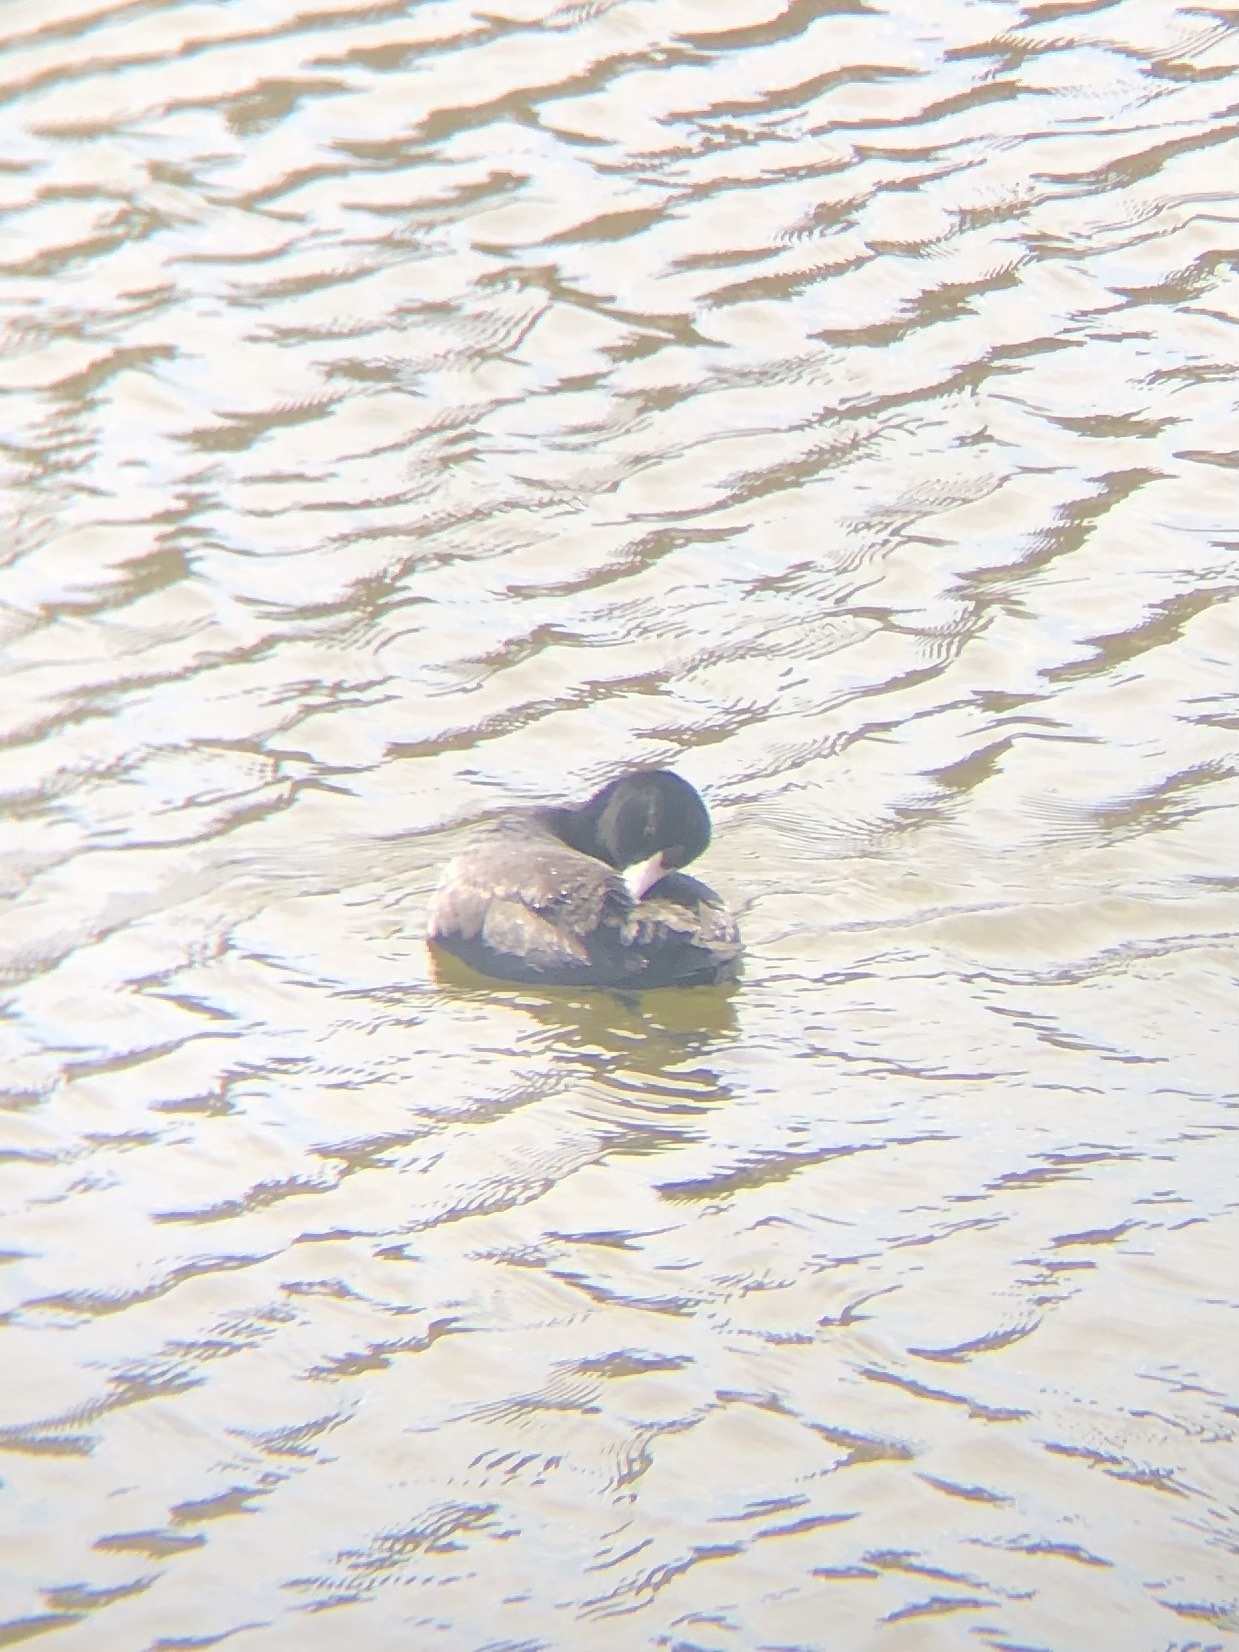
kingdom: Animalia
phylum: Chordata
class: Aves
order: Gruiformes
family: Rallidae
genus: Fulica
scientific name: Fulica americana
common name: American coot
